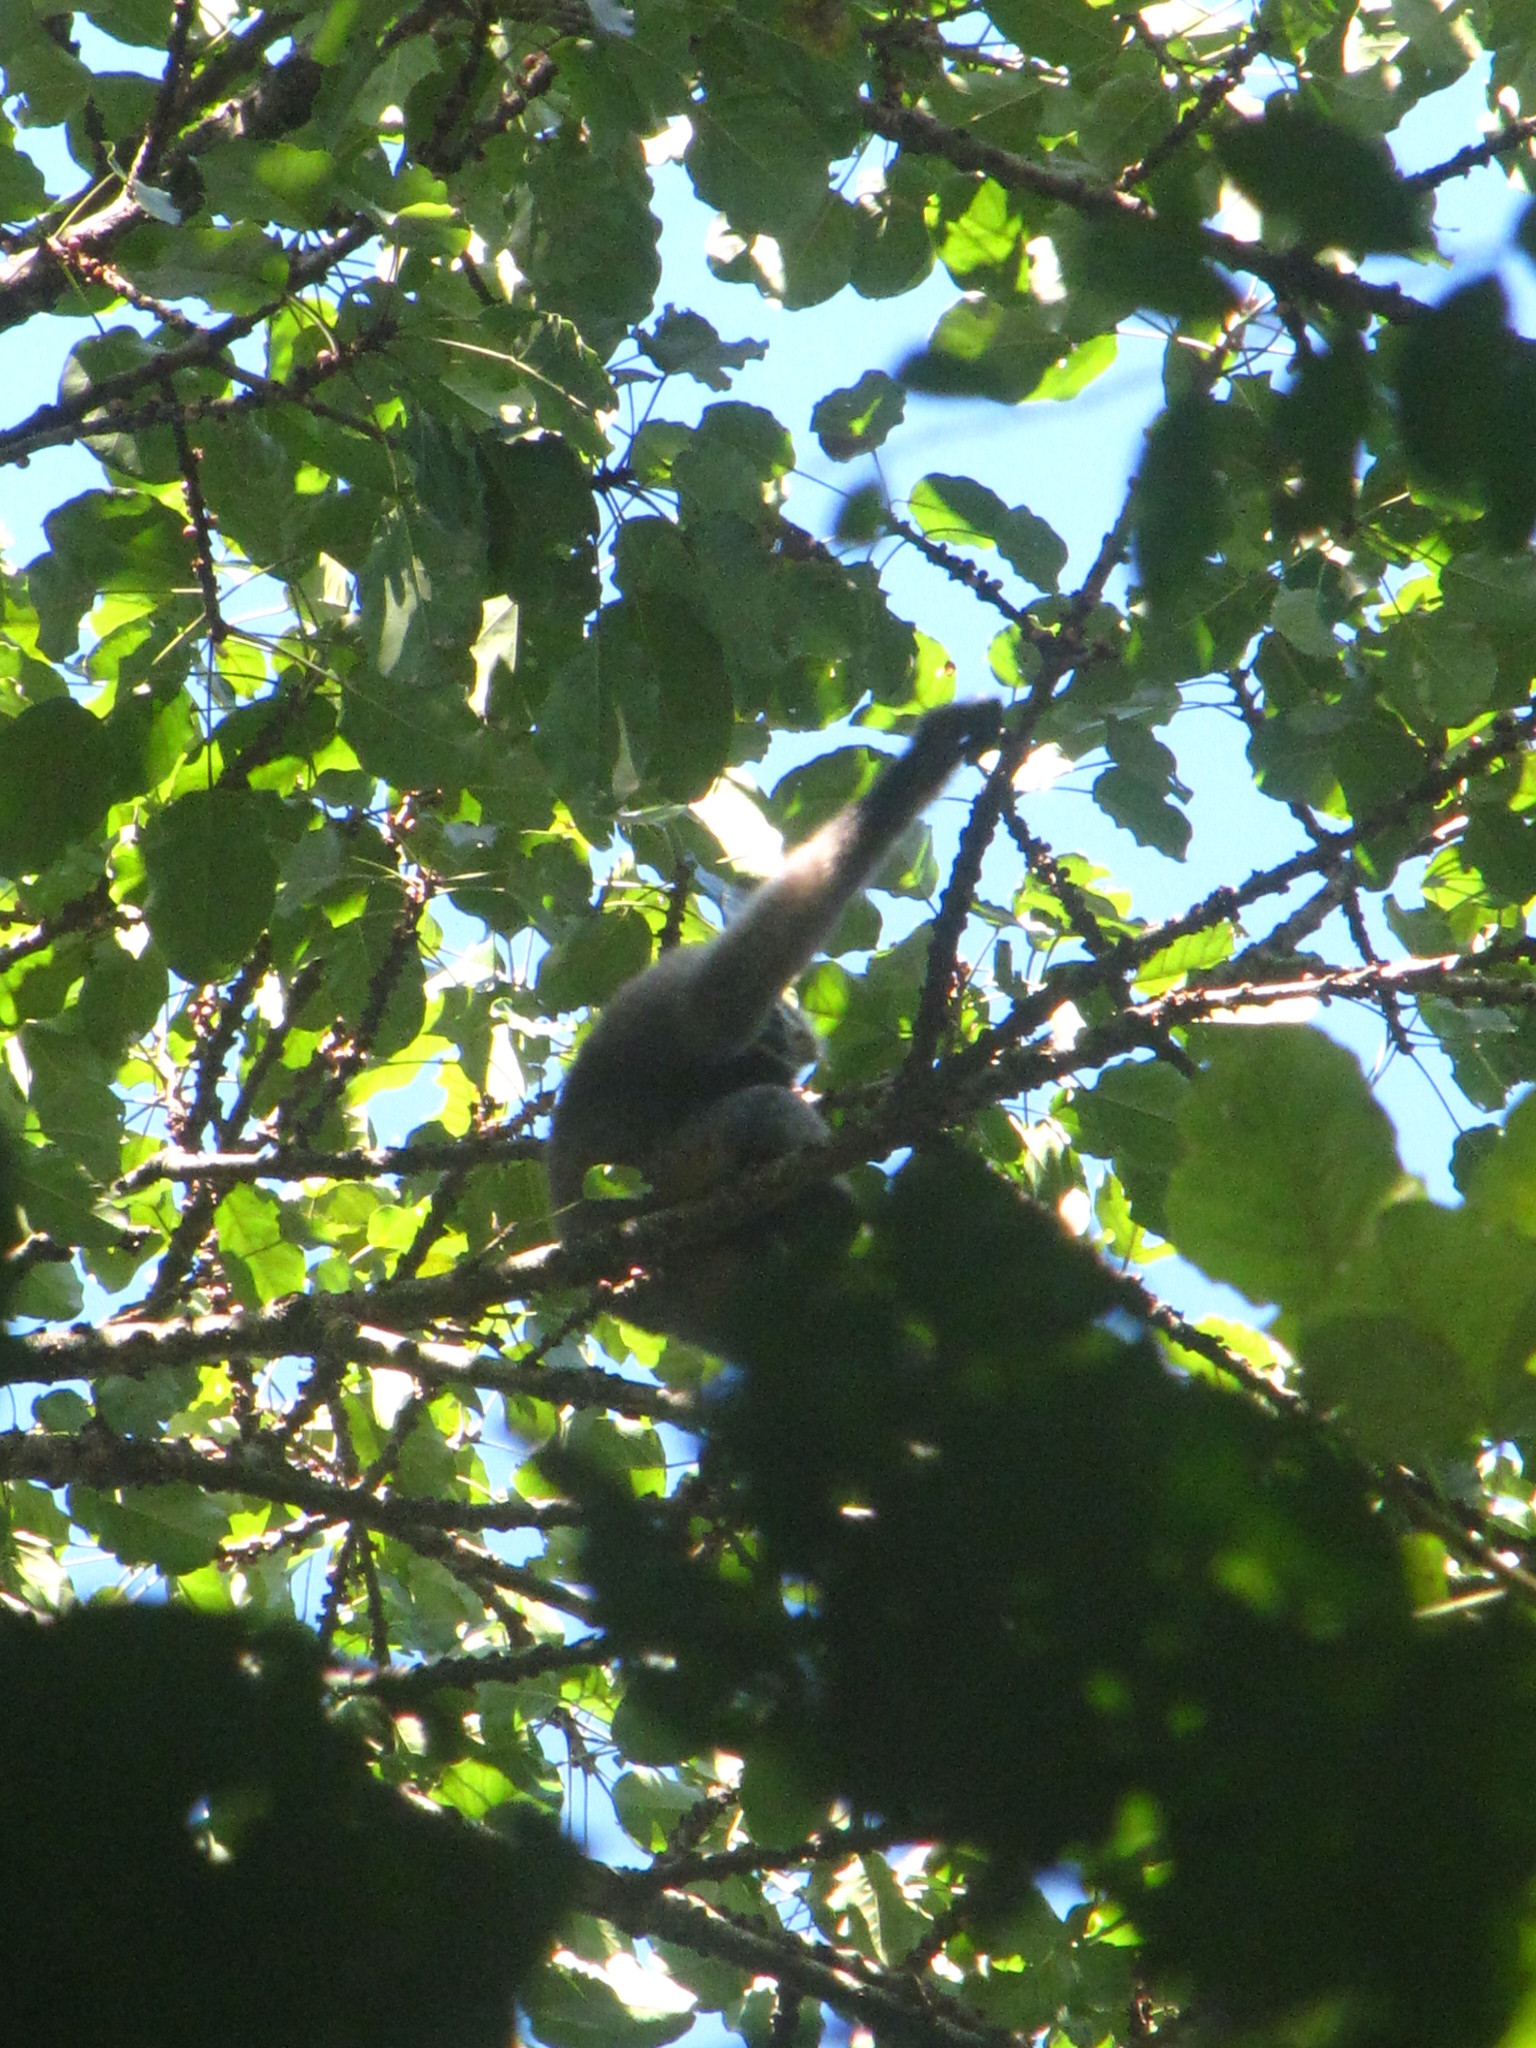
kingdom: Animalia
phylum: Chordata
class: Mammalia
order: Primates
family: Hylobatidae
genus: Hoolock
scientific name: Hoolock hoolock
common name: Western hoolock gibbon
